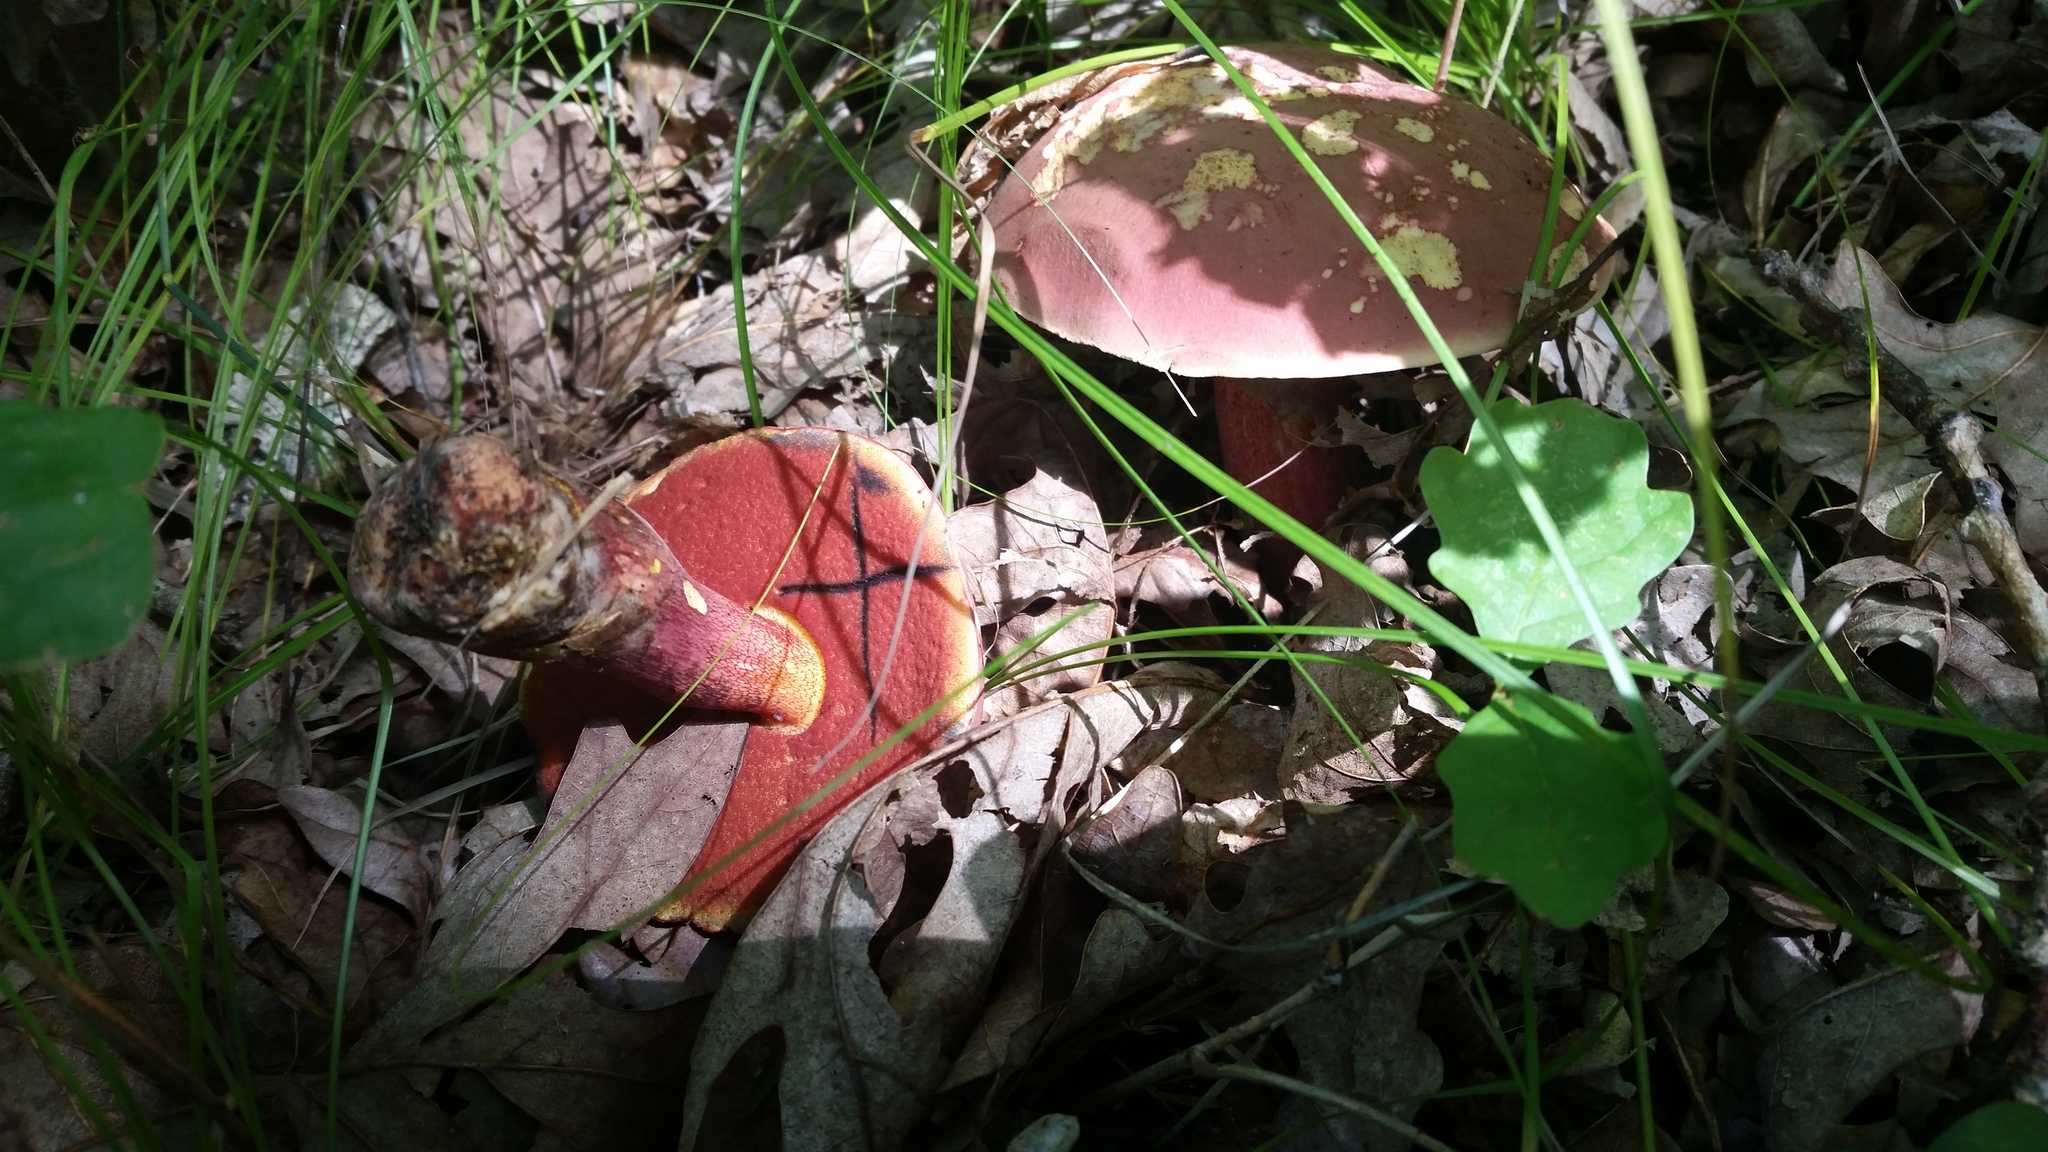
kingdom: Fungi
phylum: Basidiomycota
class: Agaricomycetes
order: Boletales
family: Boletaceae
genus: Boletus
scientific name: Boletus rubroflammeus
